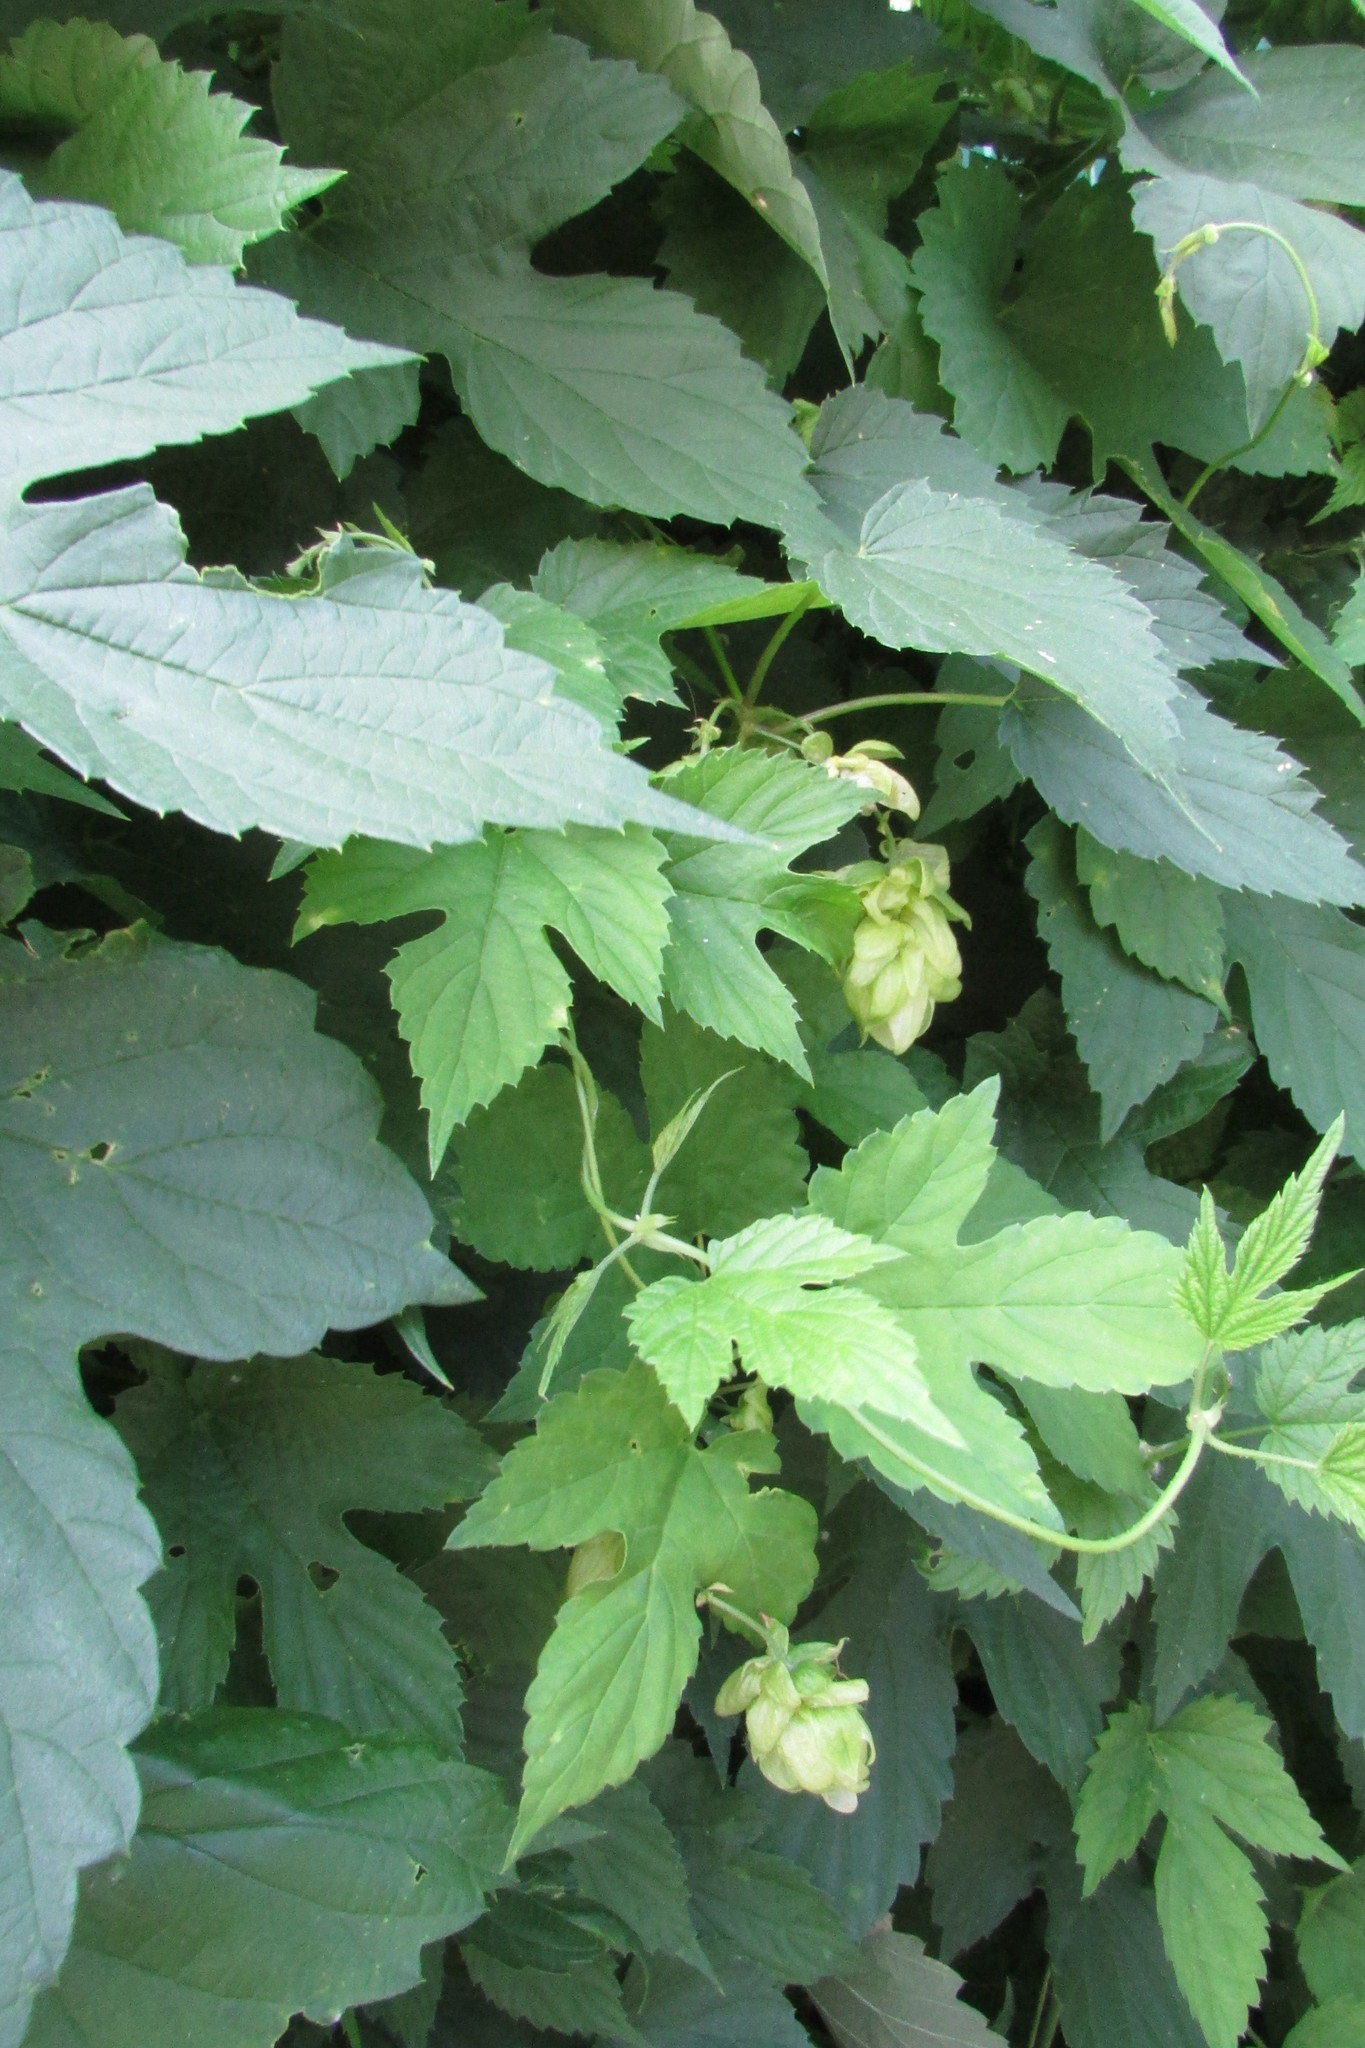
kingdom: Plantae
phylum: Tracheophyta
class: Magnoliopsida
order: Rosales
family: Cannabaceae
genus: Humulus
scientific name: Humulus lupulus
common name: Hop
